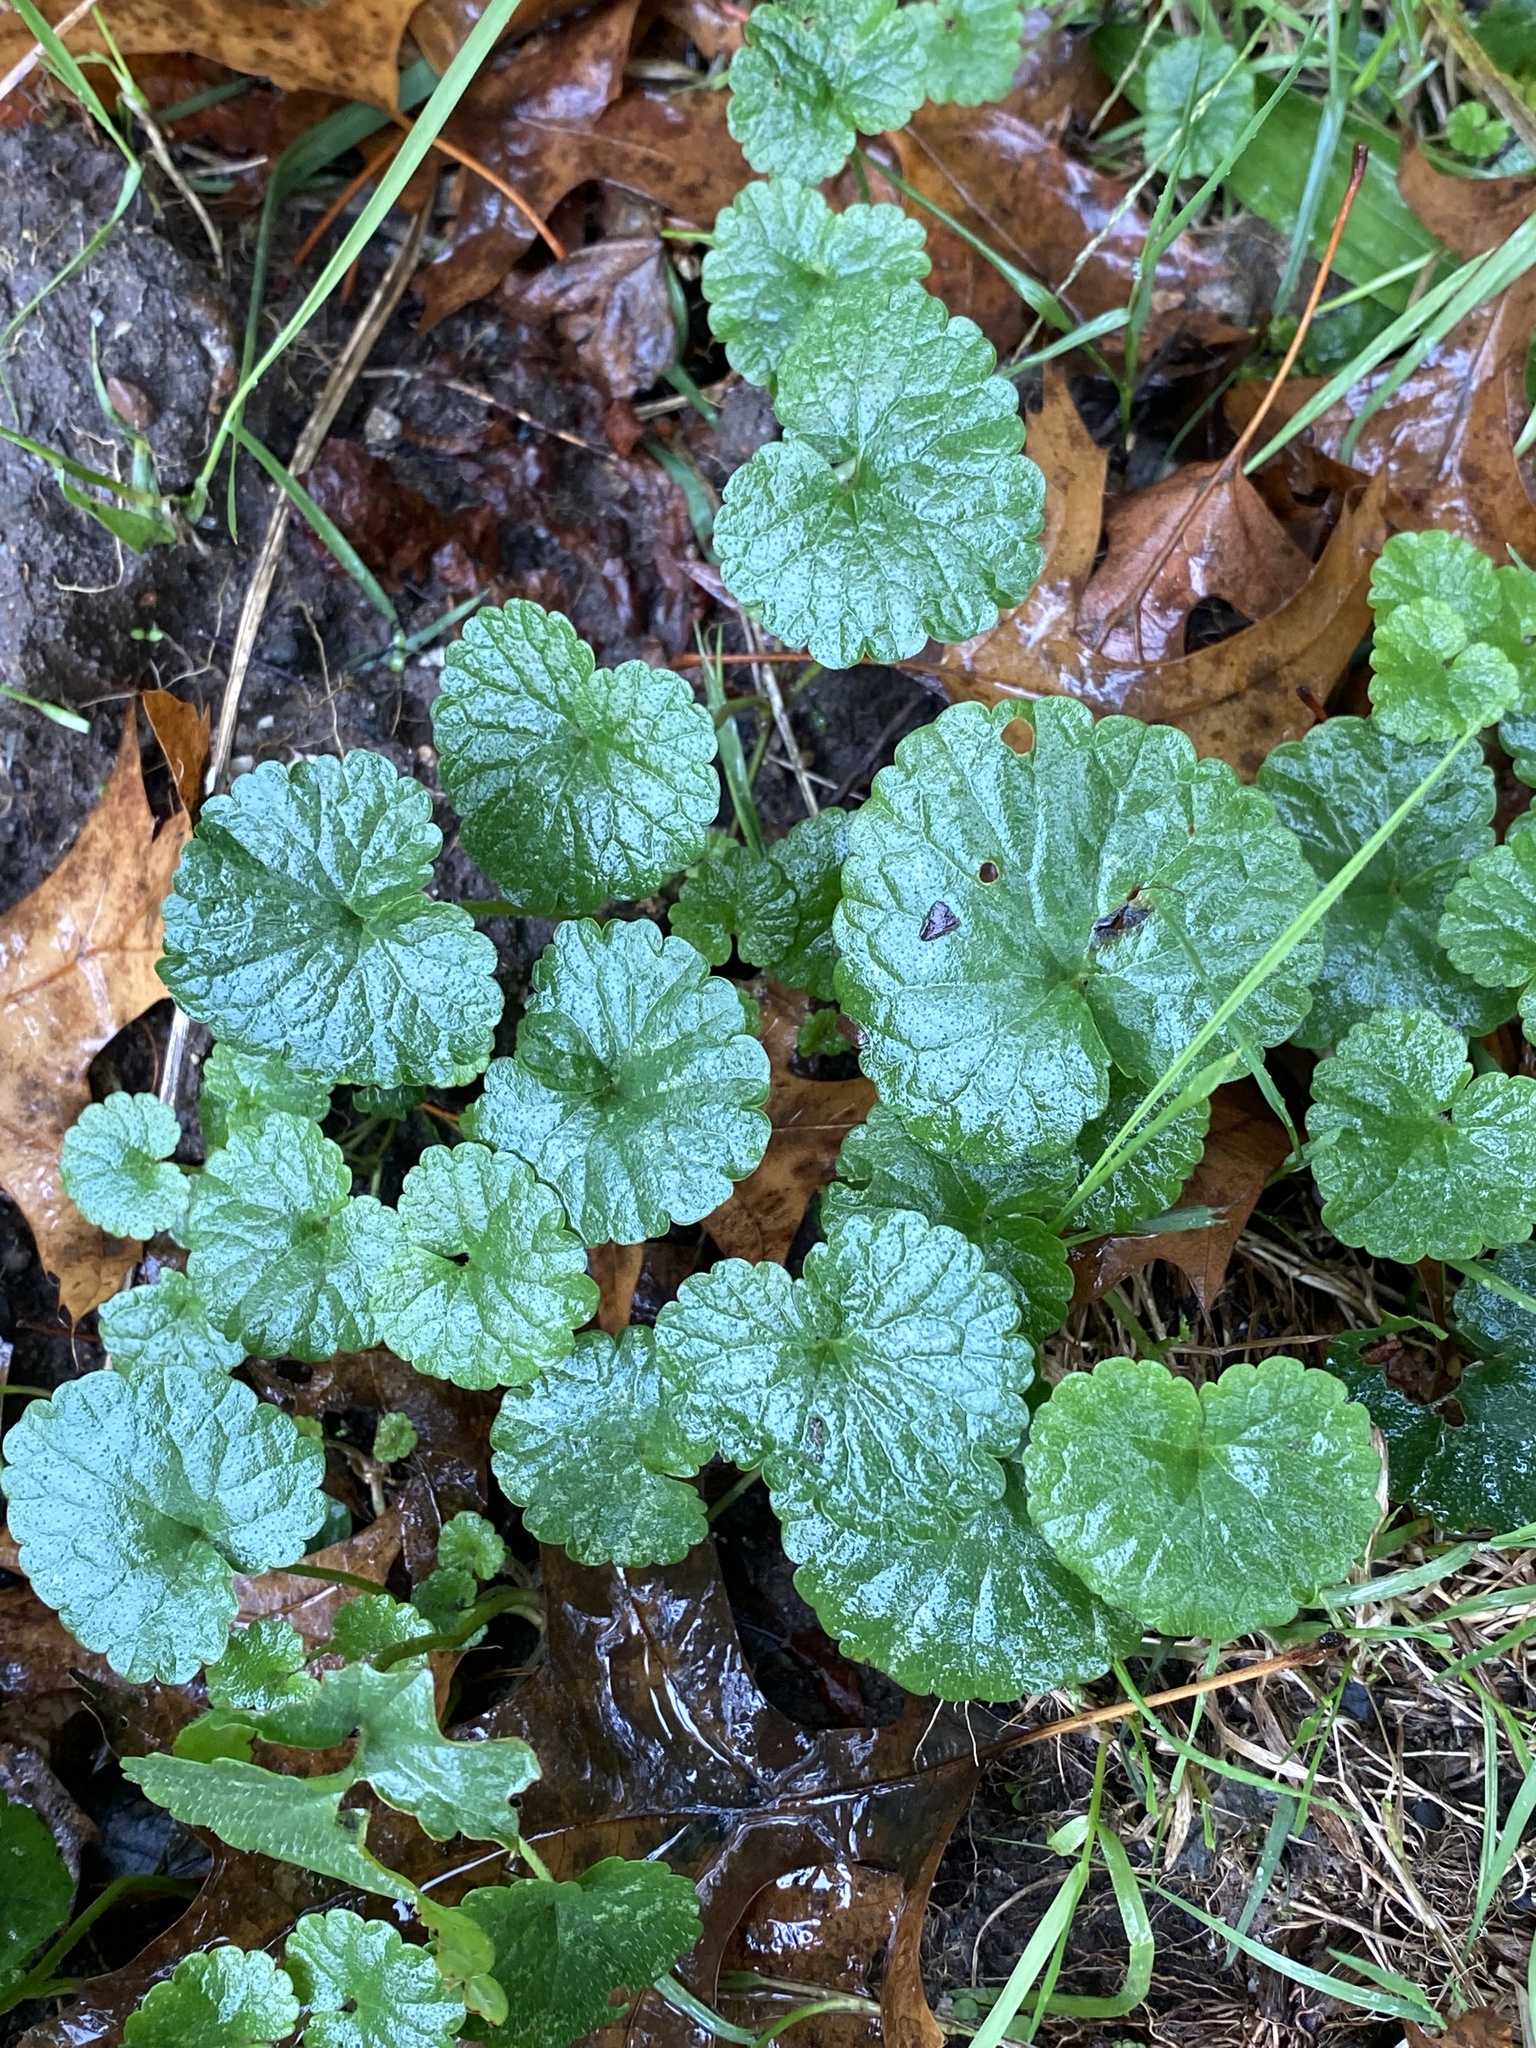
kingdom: Plantae
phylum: Tracheophyta
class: Magnoliopsida
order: Lamiales
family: Lamiaceae
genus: Glechoma
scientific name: Glechoma hederacea
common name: Ground ivy
